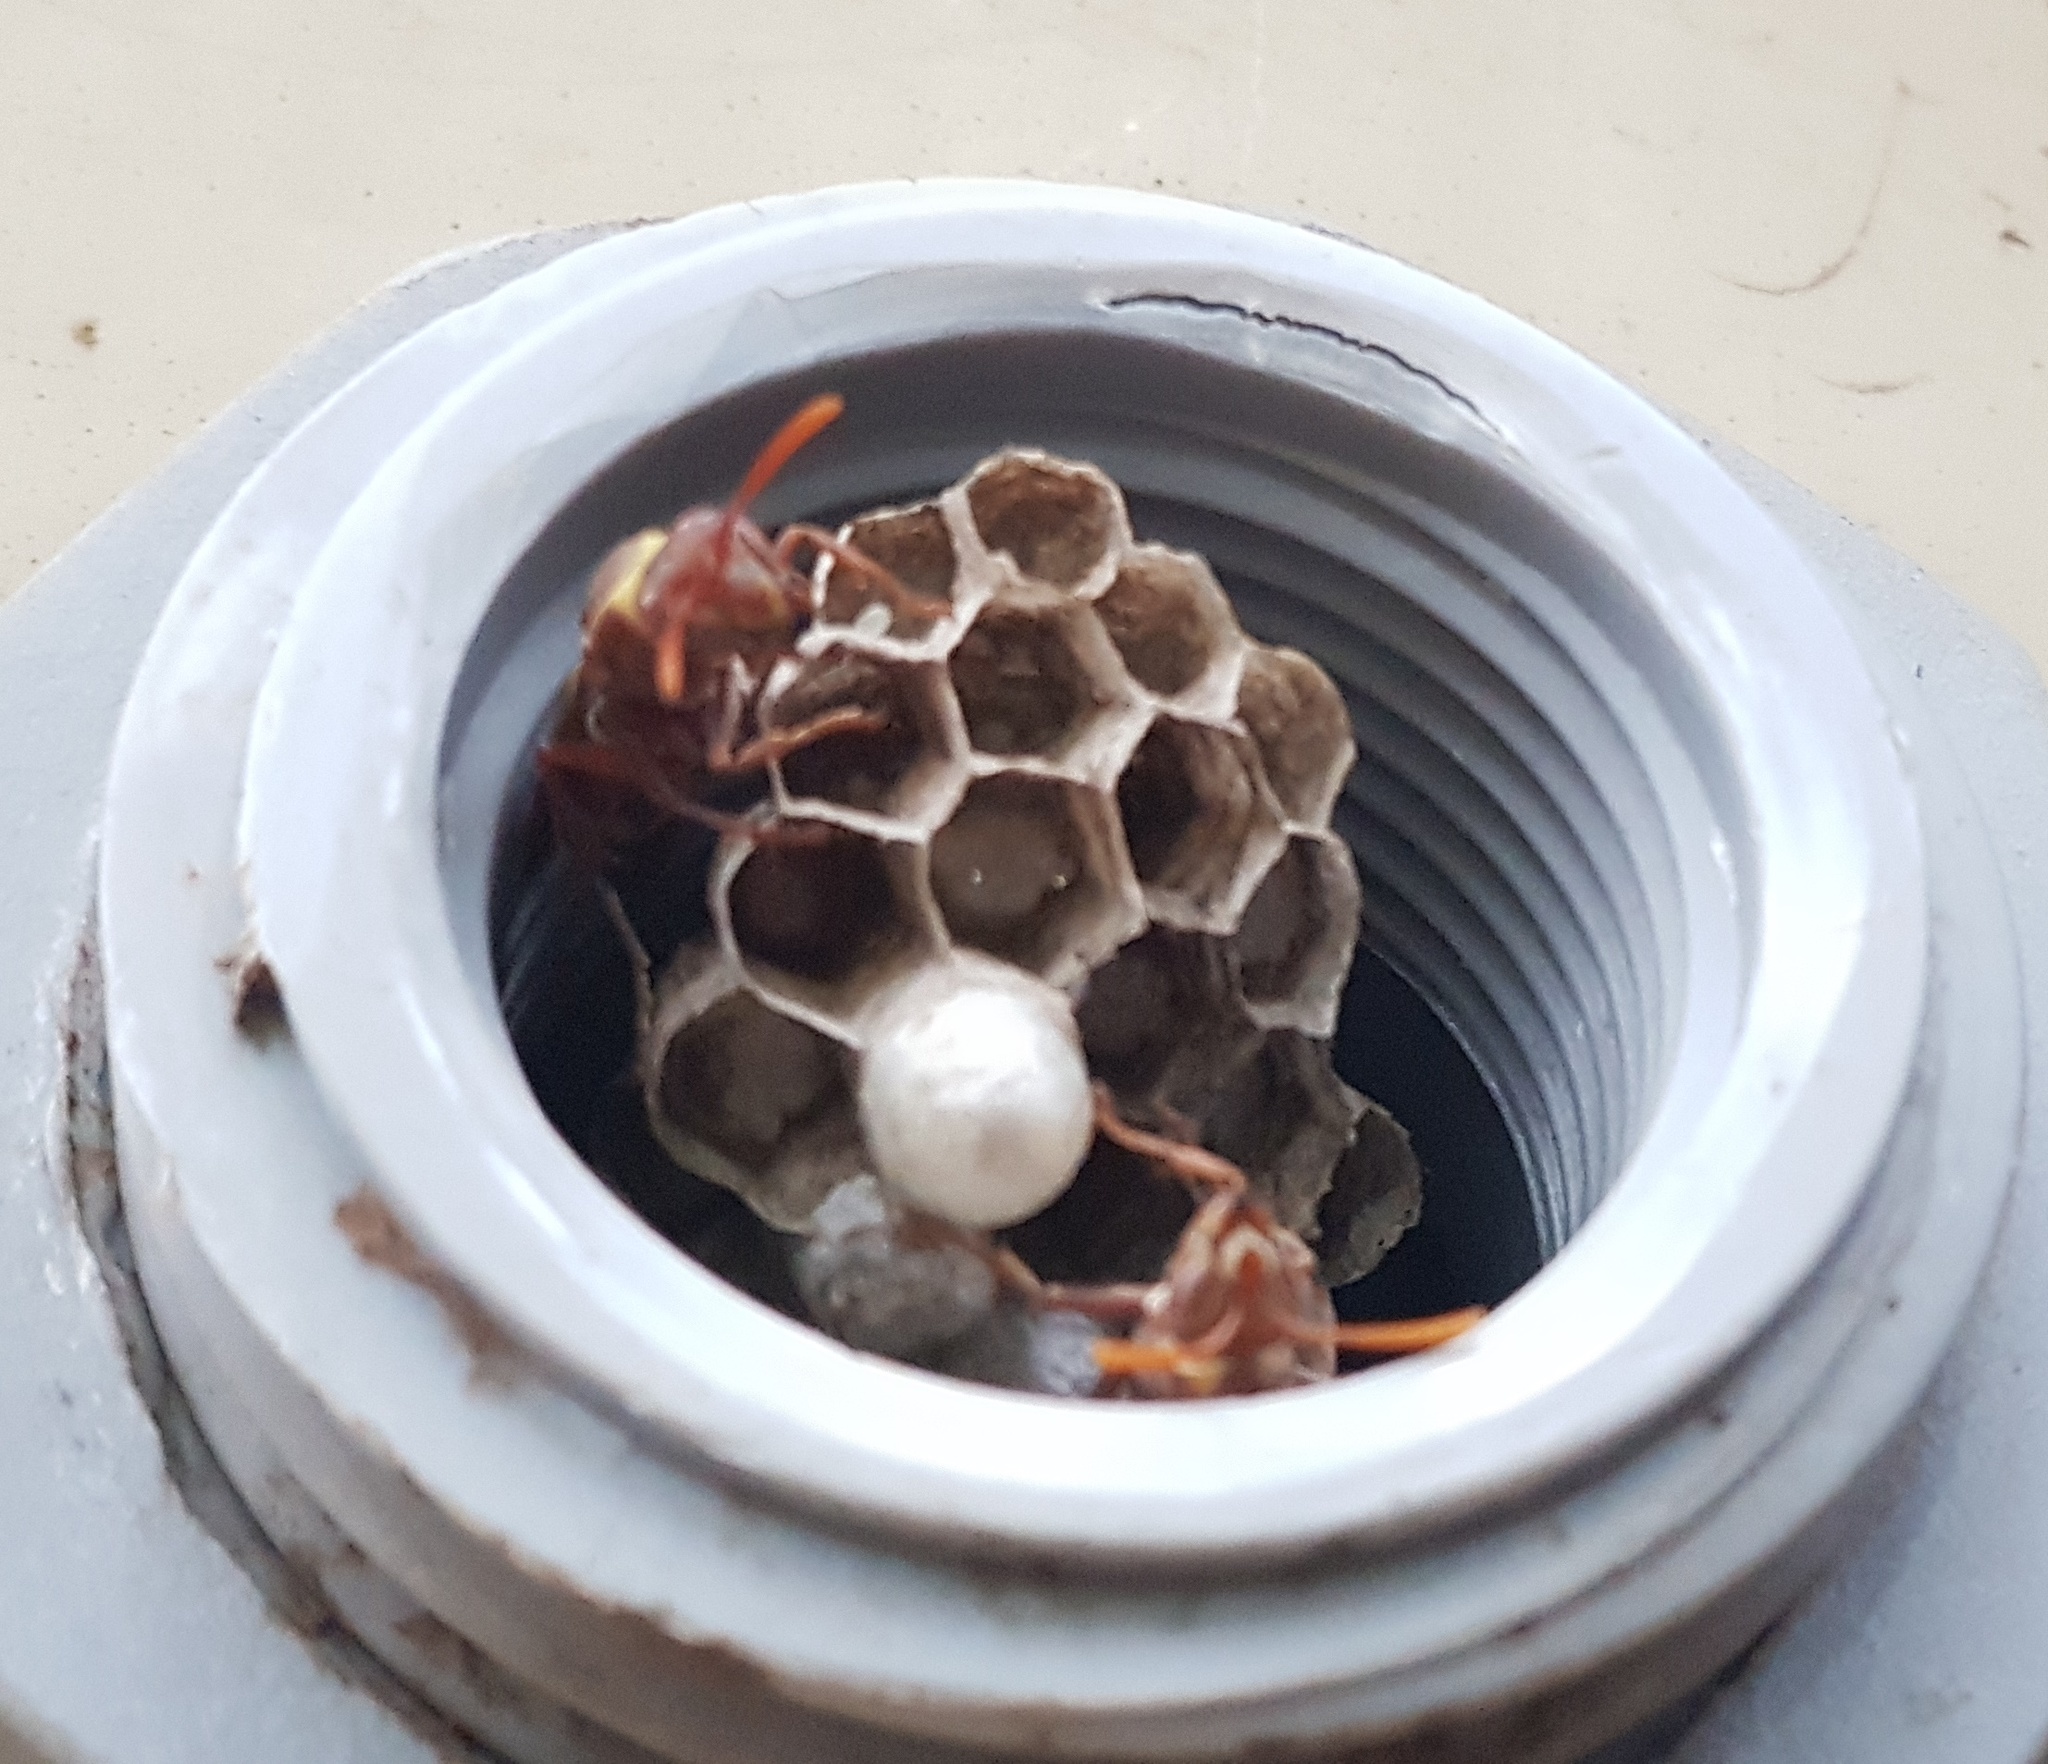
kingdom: Animalia
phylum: Arthropoda
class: Insecta
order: Hymenoptera
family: Eumenidae
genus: Polistes
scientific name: Polistes badius
